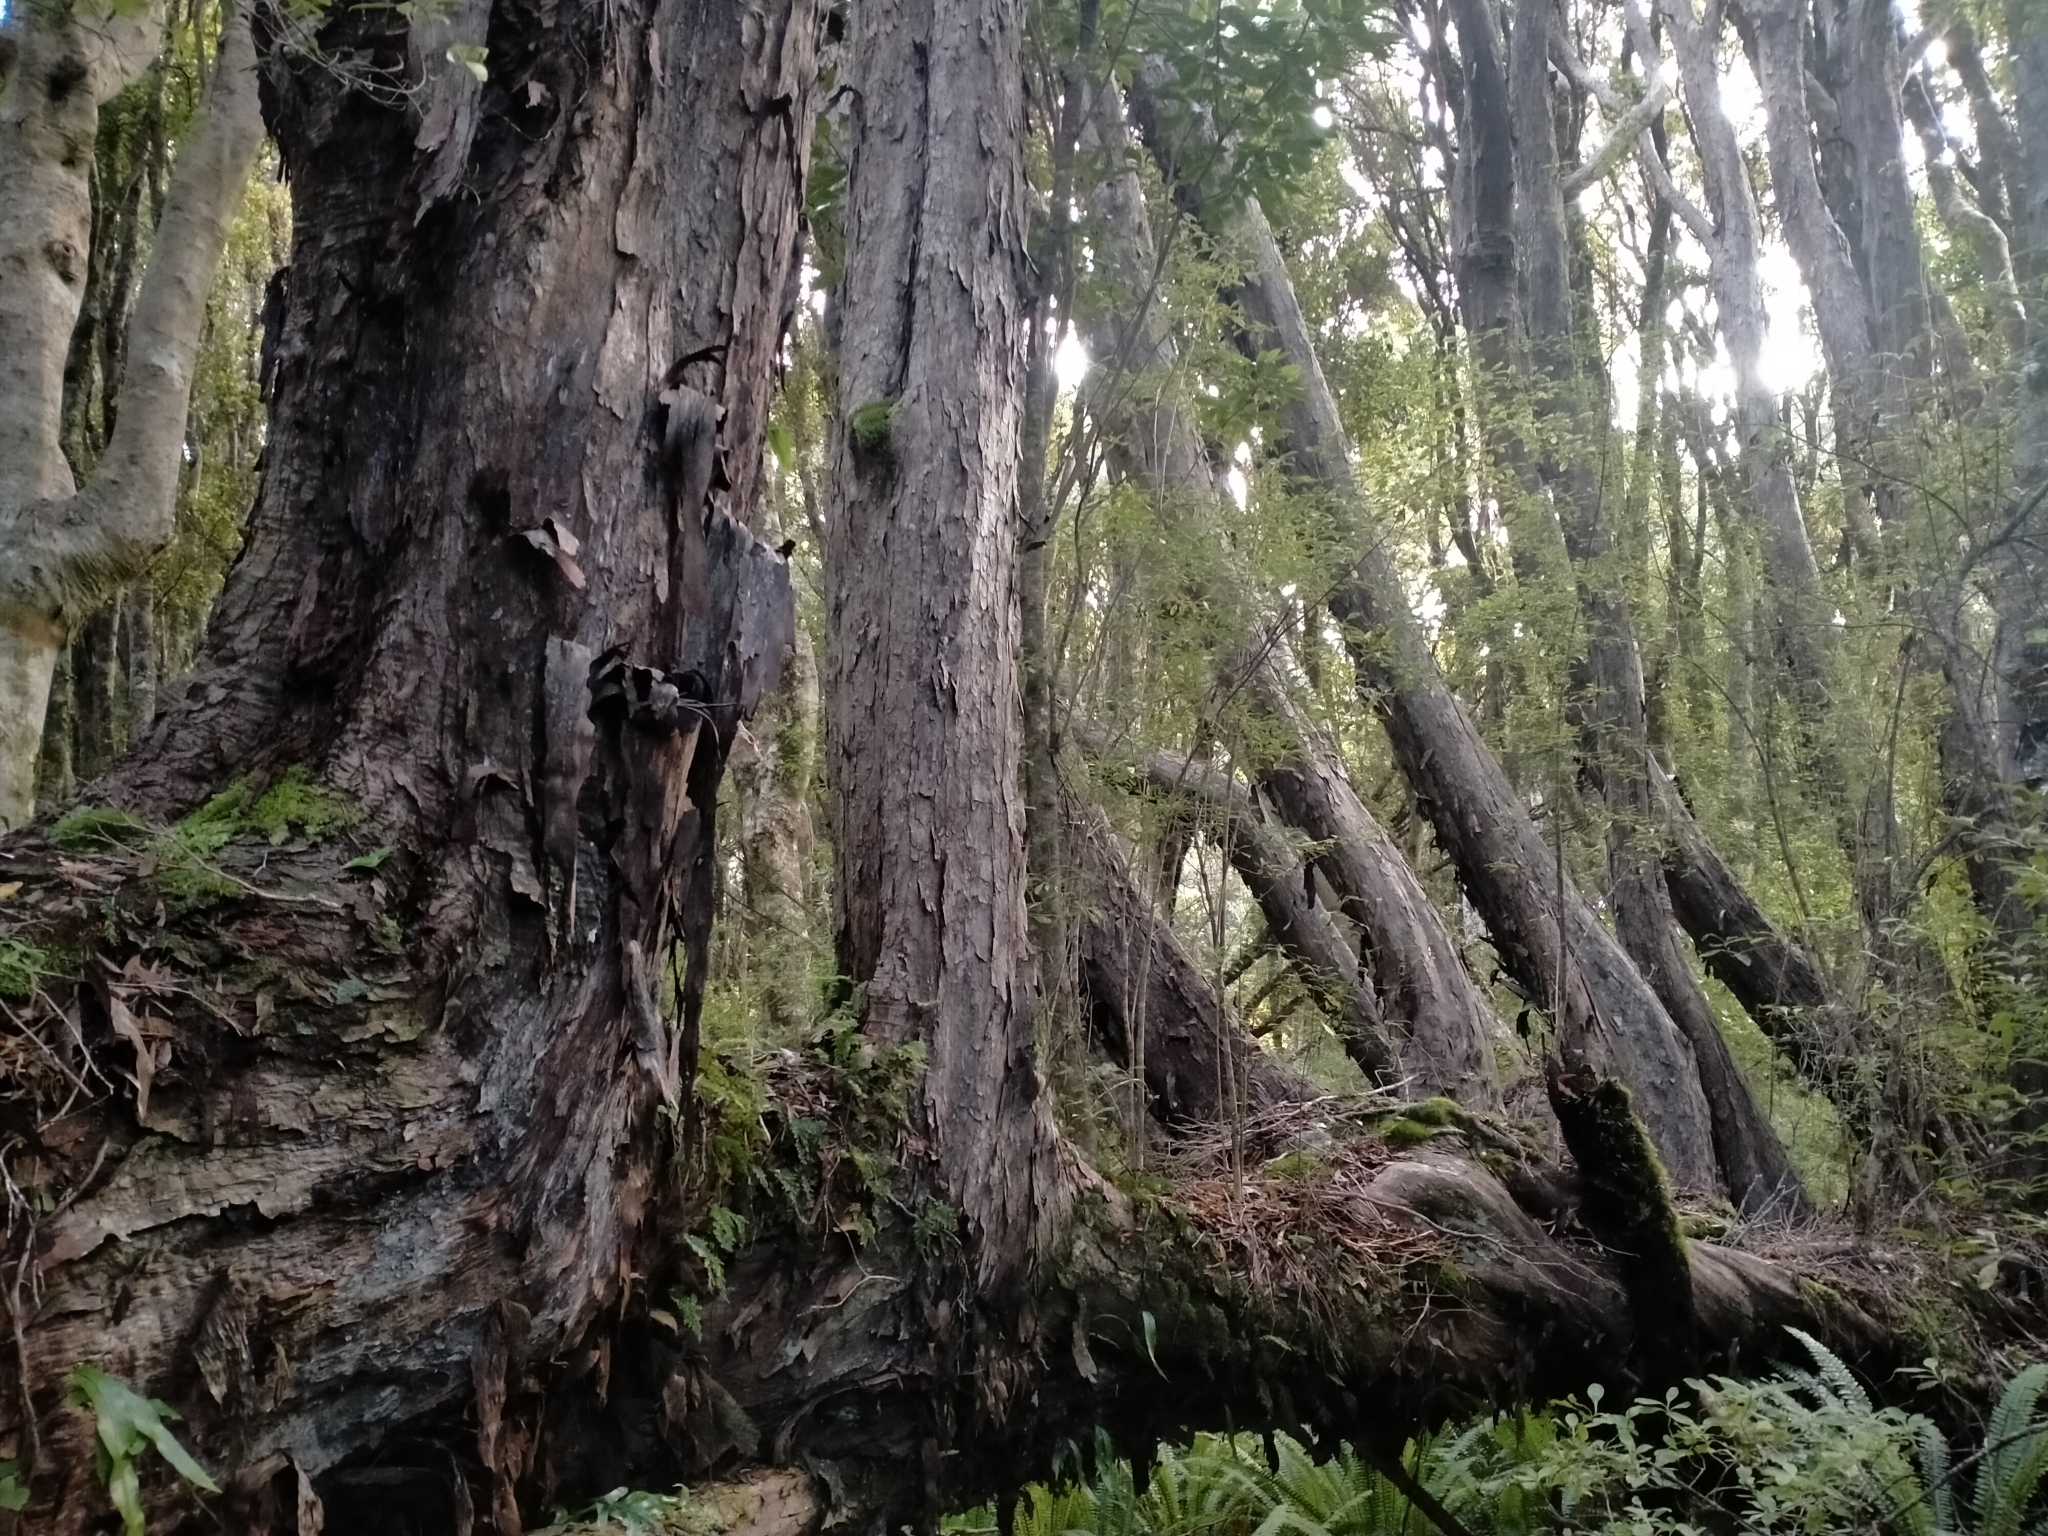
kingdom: Plantae
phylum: Tracheophyta
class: Magnoliopsida
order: Myrtales
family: Myrtaceae
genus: Metrosideros
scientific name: Metrosideros umbellata
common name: Southern rata
